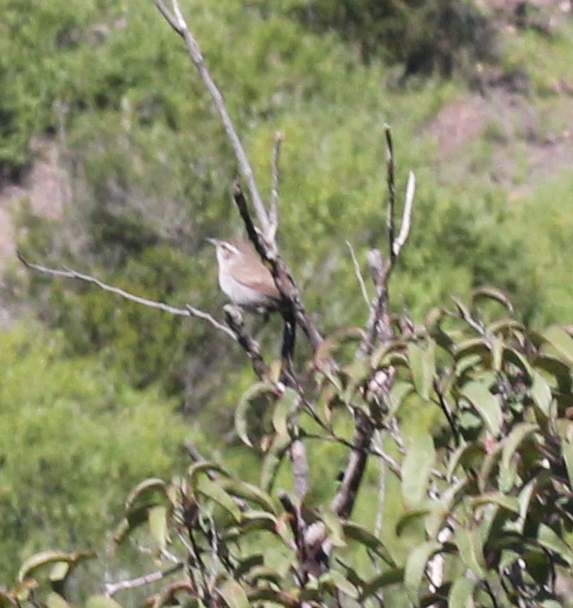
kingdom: Animalia
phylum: Chordata
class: Aves
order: Passeriformes
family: Troglodytidae
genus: Thryomanes
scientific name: Thryomanes bewickii
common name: Bewick's wren
